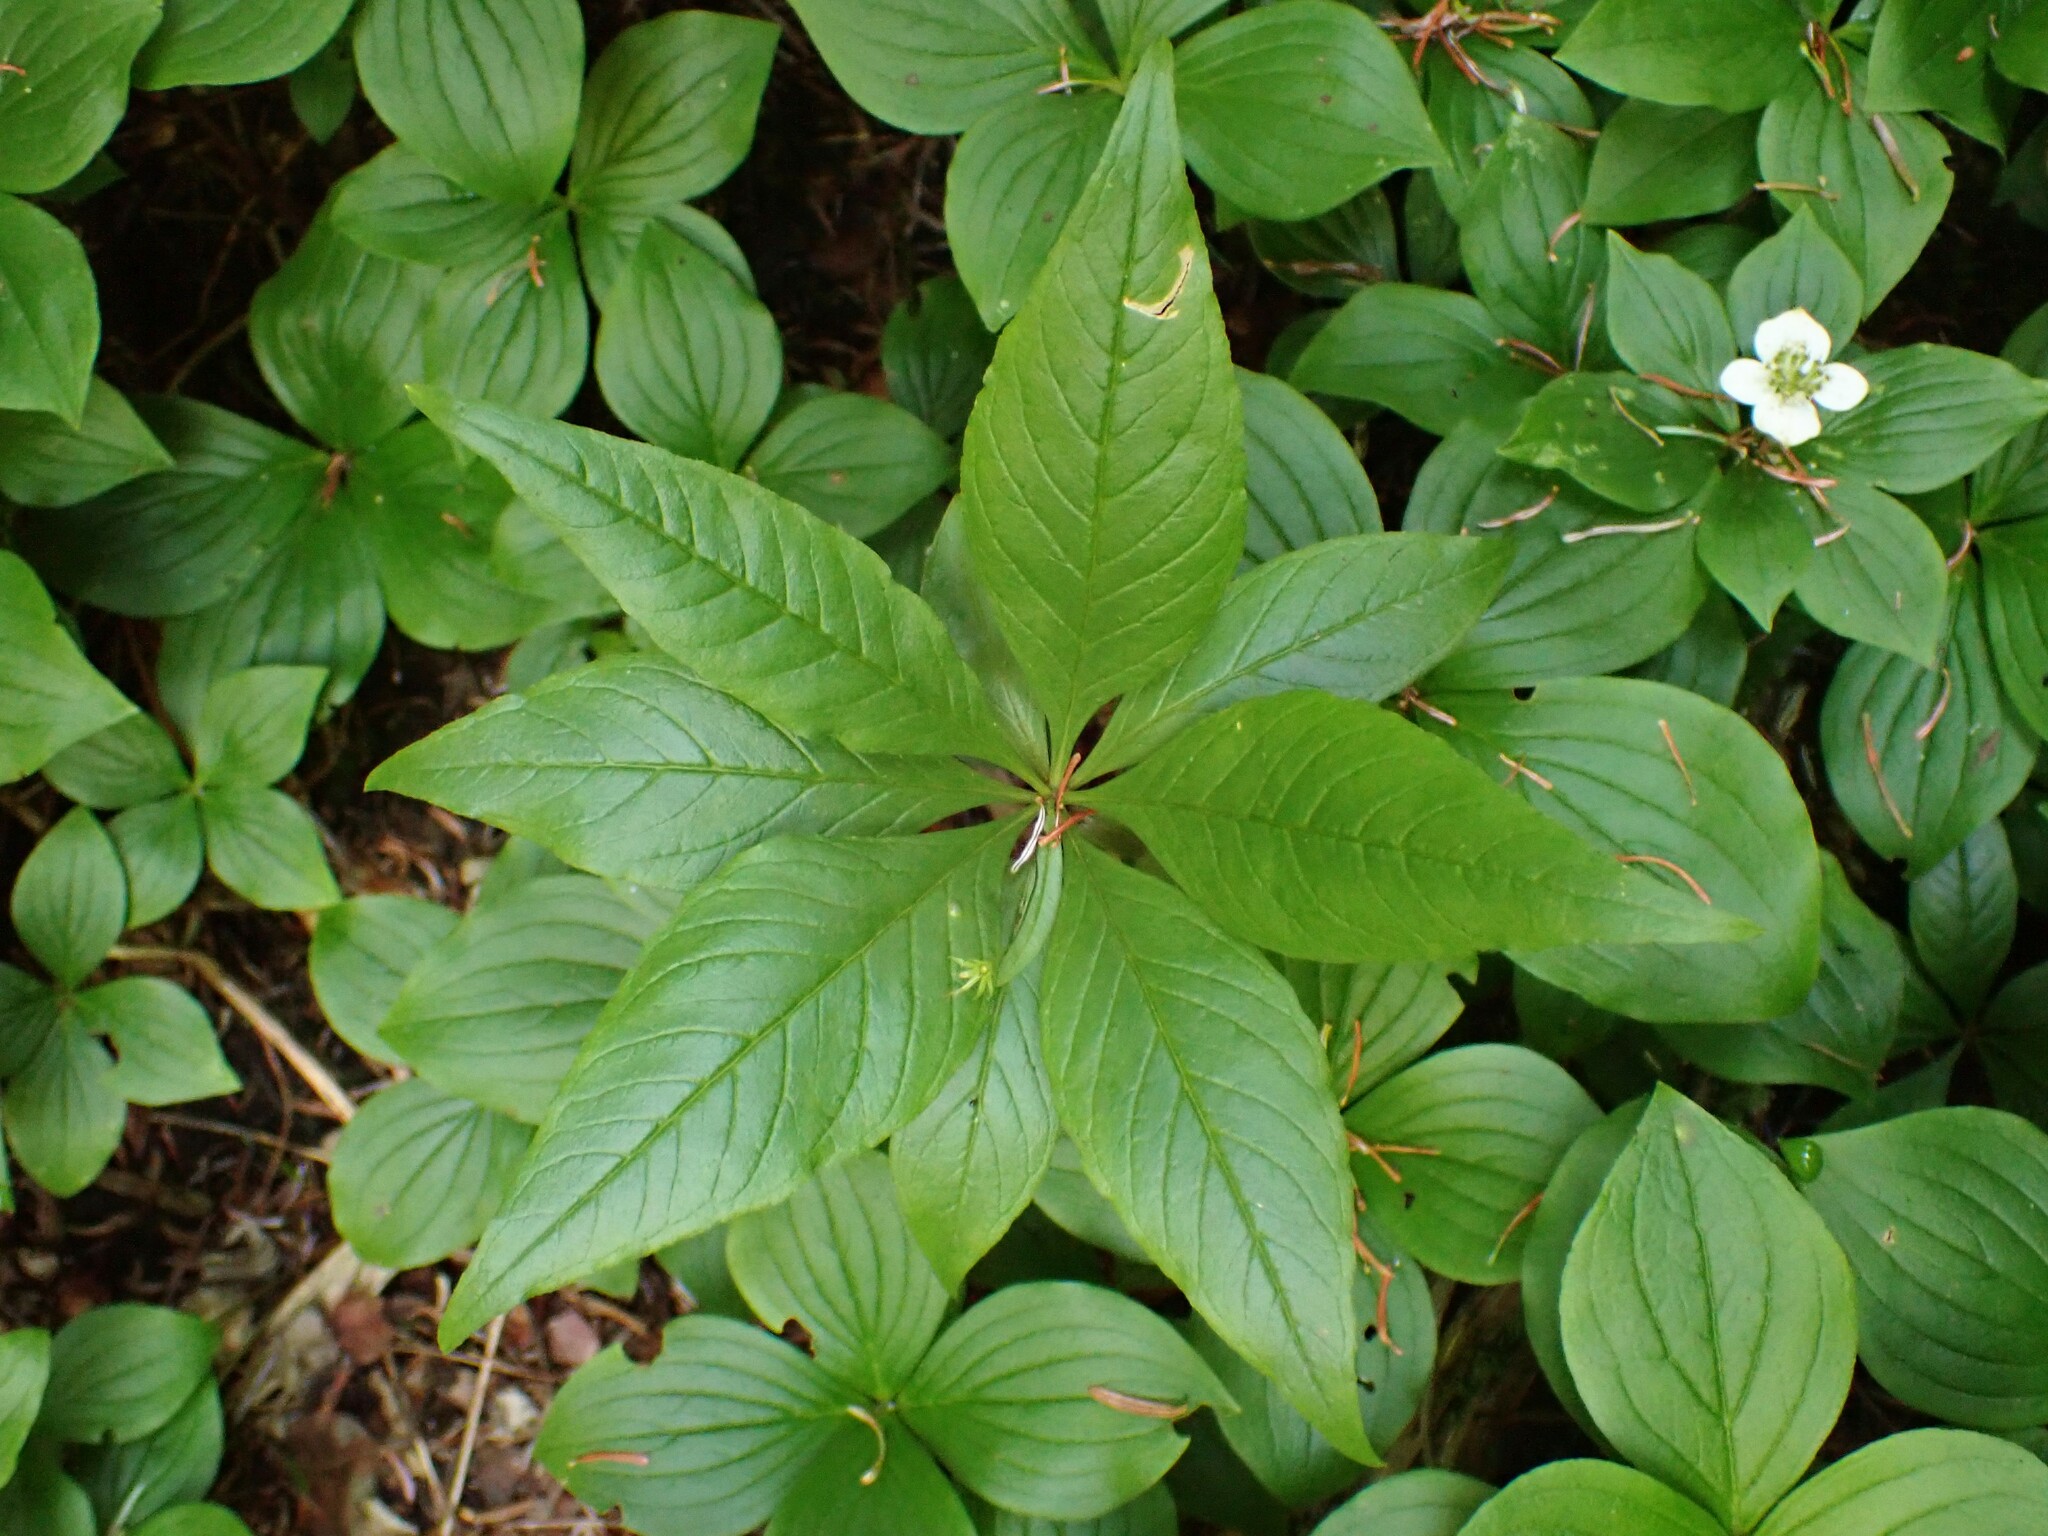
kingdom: Plantae
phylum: Tracheophyta
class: Magnoliopsida
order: Ericales
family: Primulaceae
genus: Lysimachia
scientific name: Lysimachia borealis
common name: American starflower
